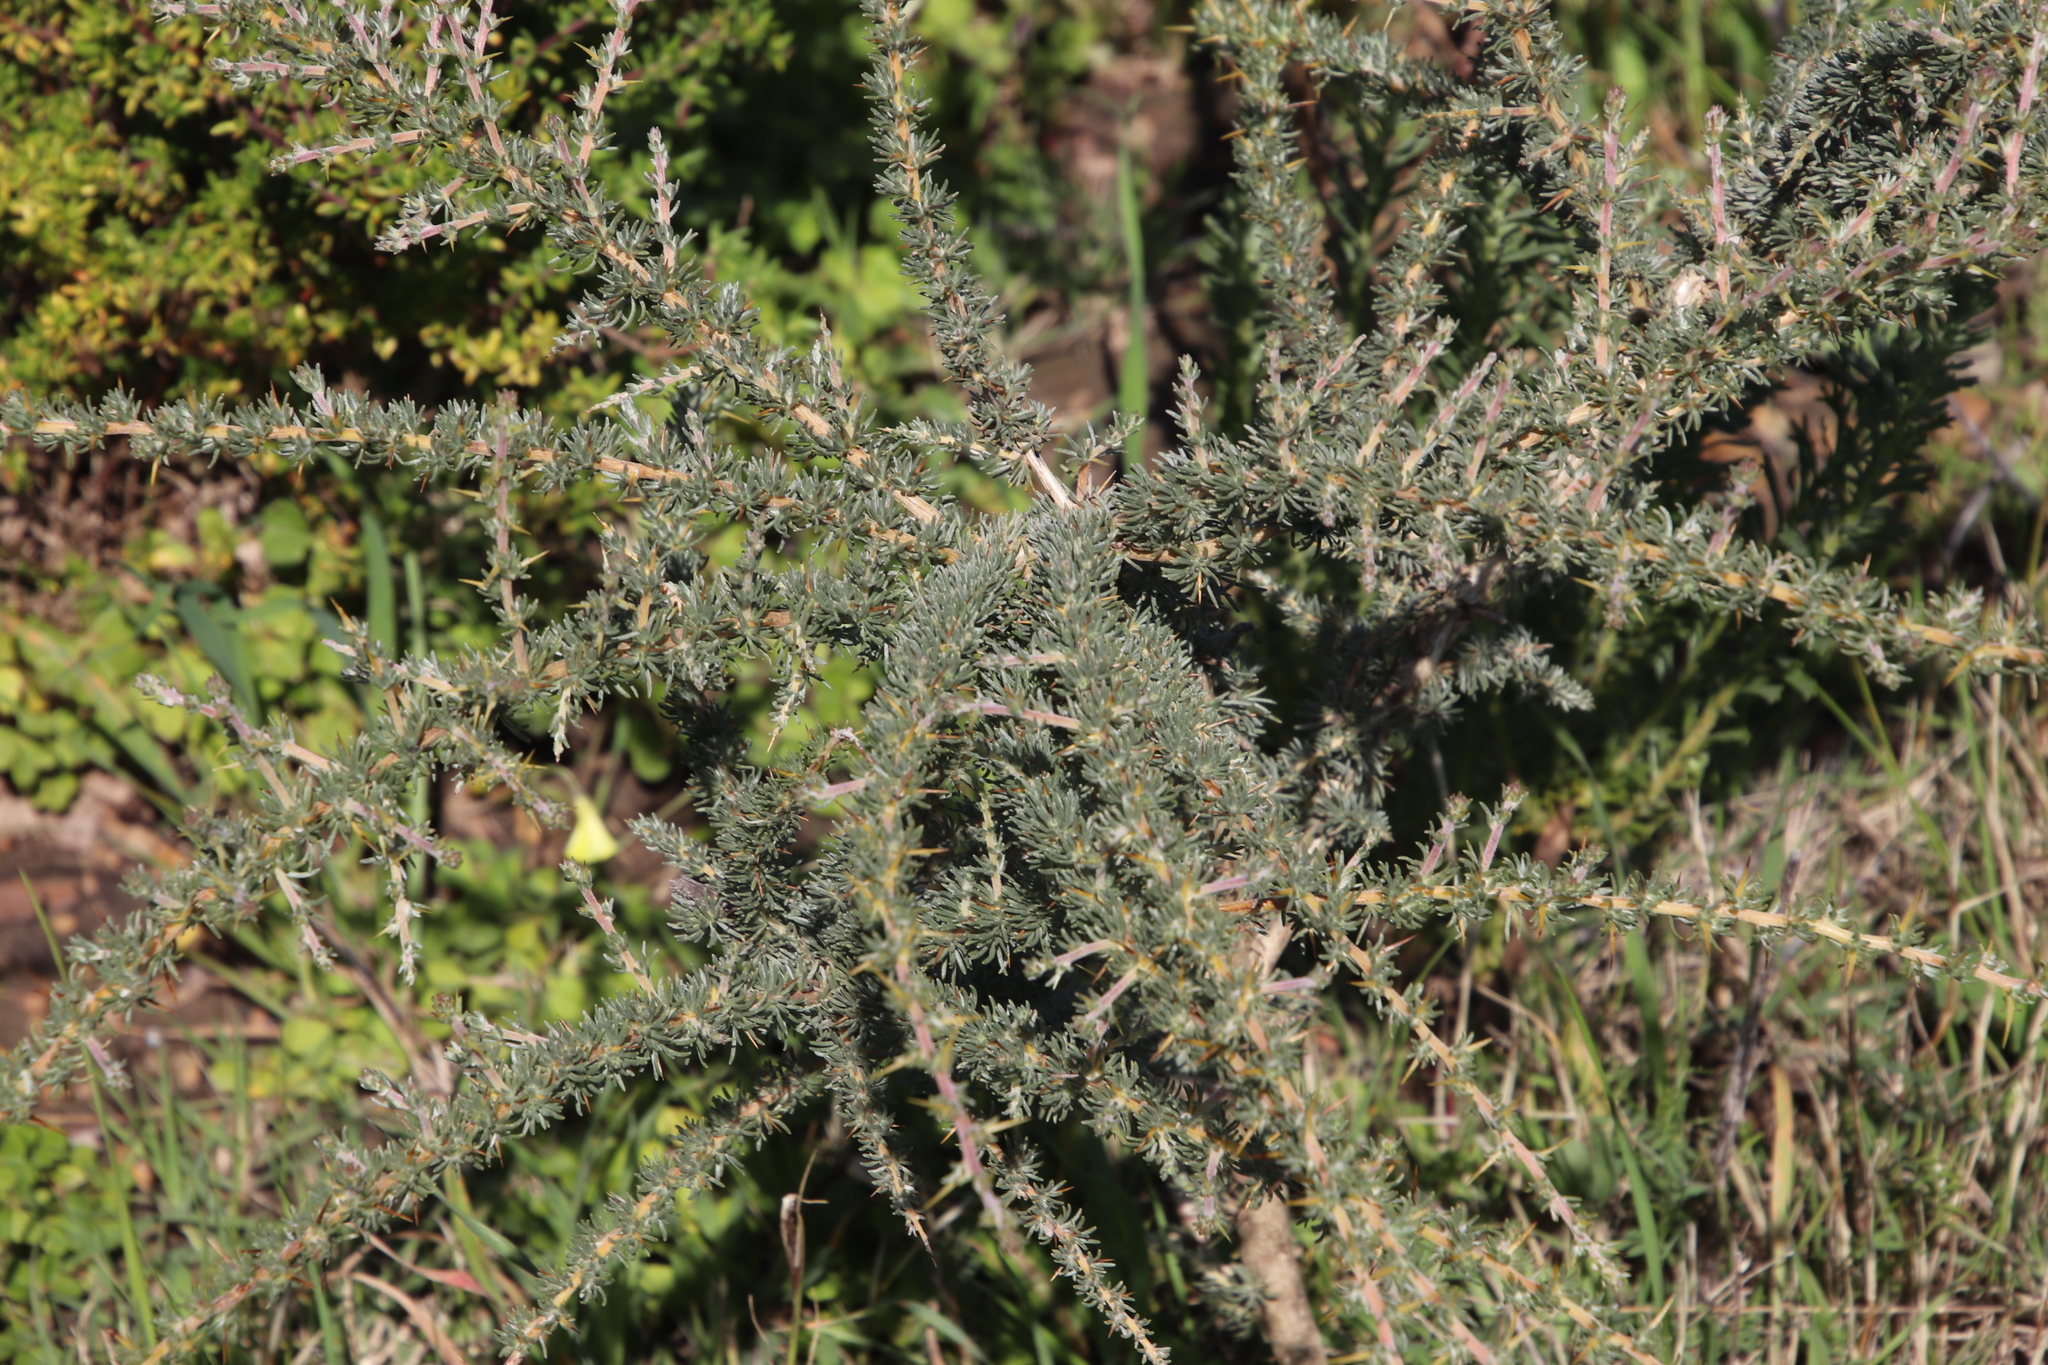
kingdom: Plantae
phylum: Tracheophyta
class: Magnoliopsida
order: Fabales
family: Fabaceae
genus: Aspalathus
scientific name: Aspalathus acanthophylla
